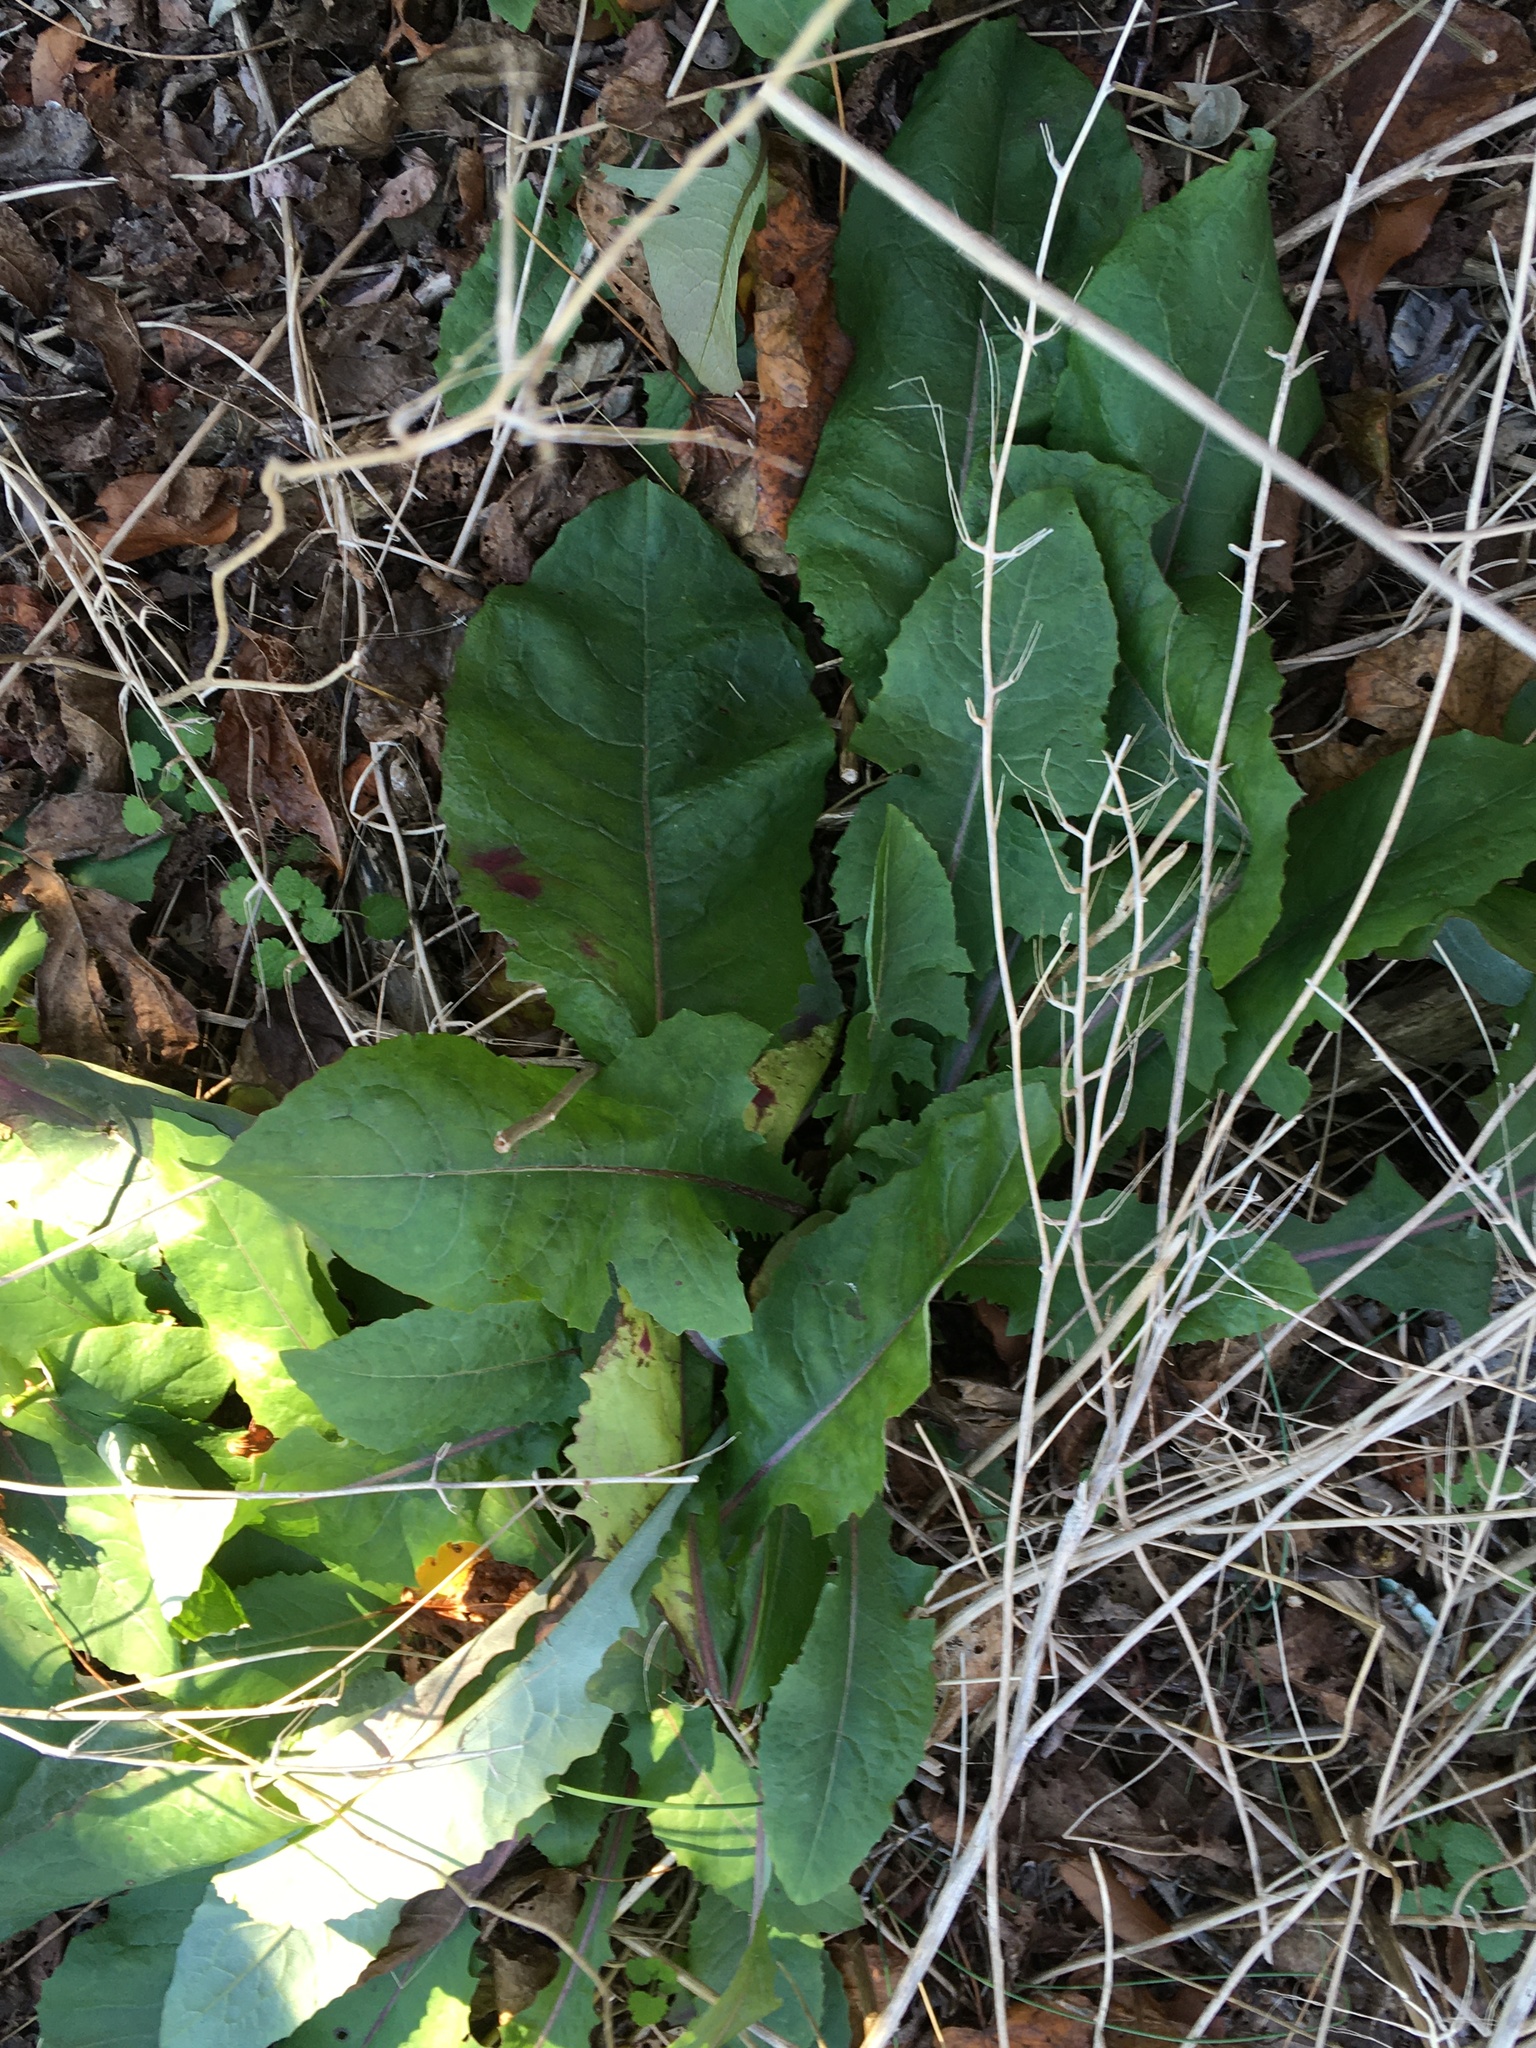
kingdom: Plantae
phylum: Tracheophyta
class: Magnoliopsida
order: Asterales
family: Asteraceae
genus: Taraxacum
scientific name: Taraxacum officinale
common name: Common dandelion
